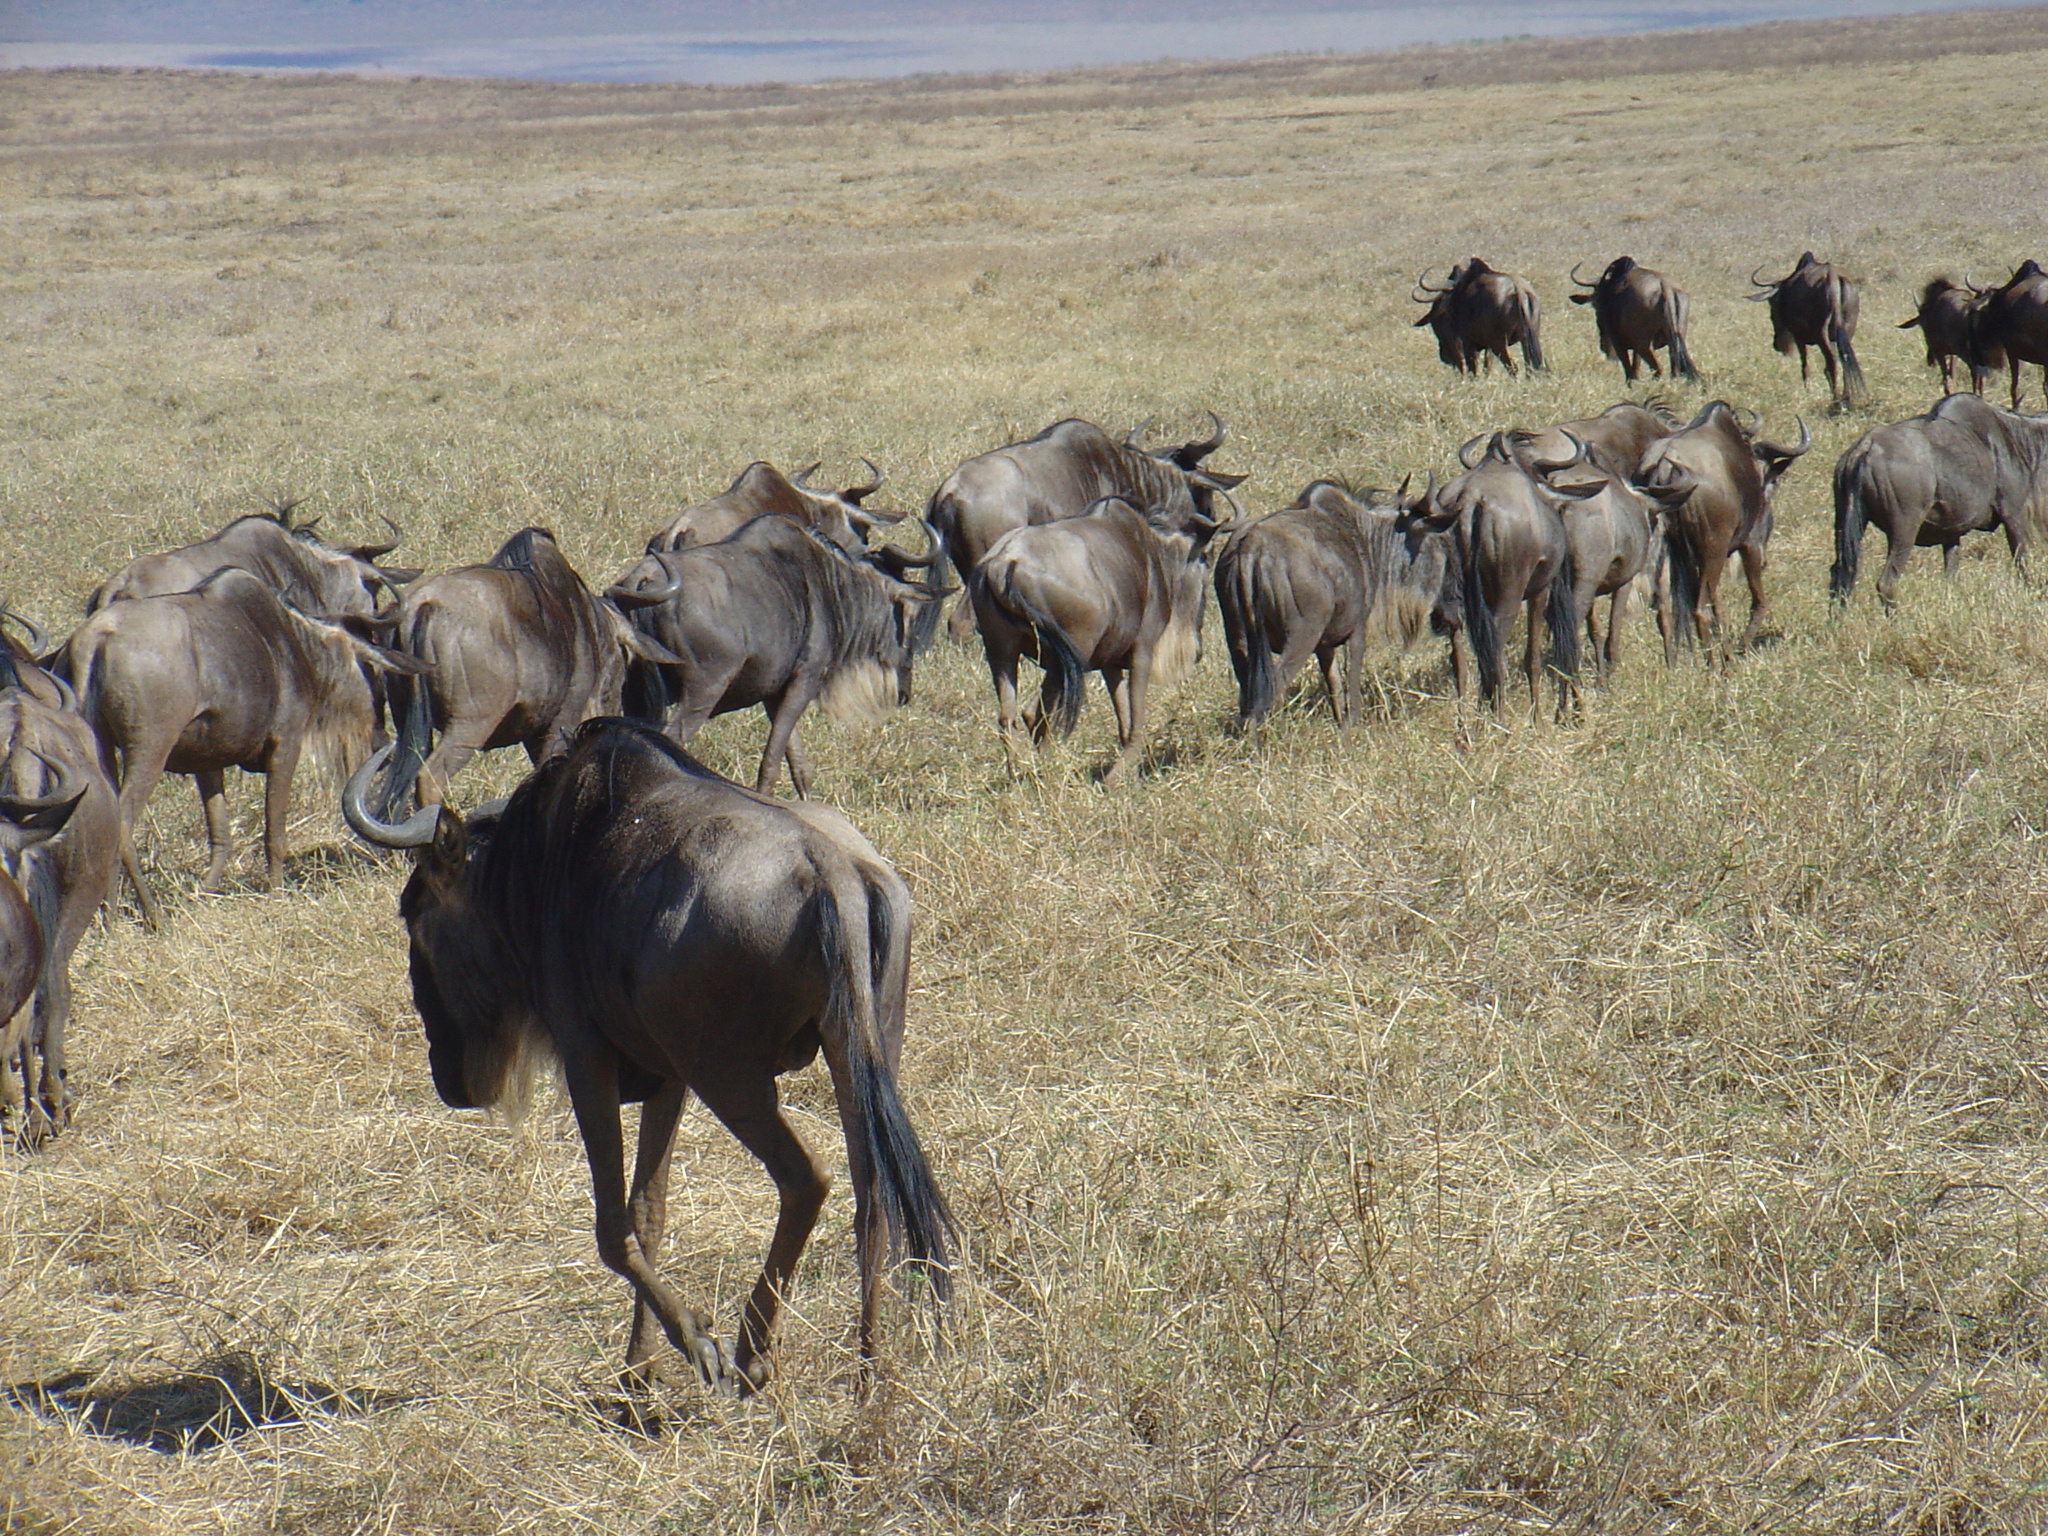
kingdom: Animalia
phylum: Chordata
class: Mammalia
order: Artiodactyla
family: Bovidae
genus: Connochaetes
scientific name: Connochaetes taurinus
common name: Blue wildebeest
